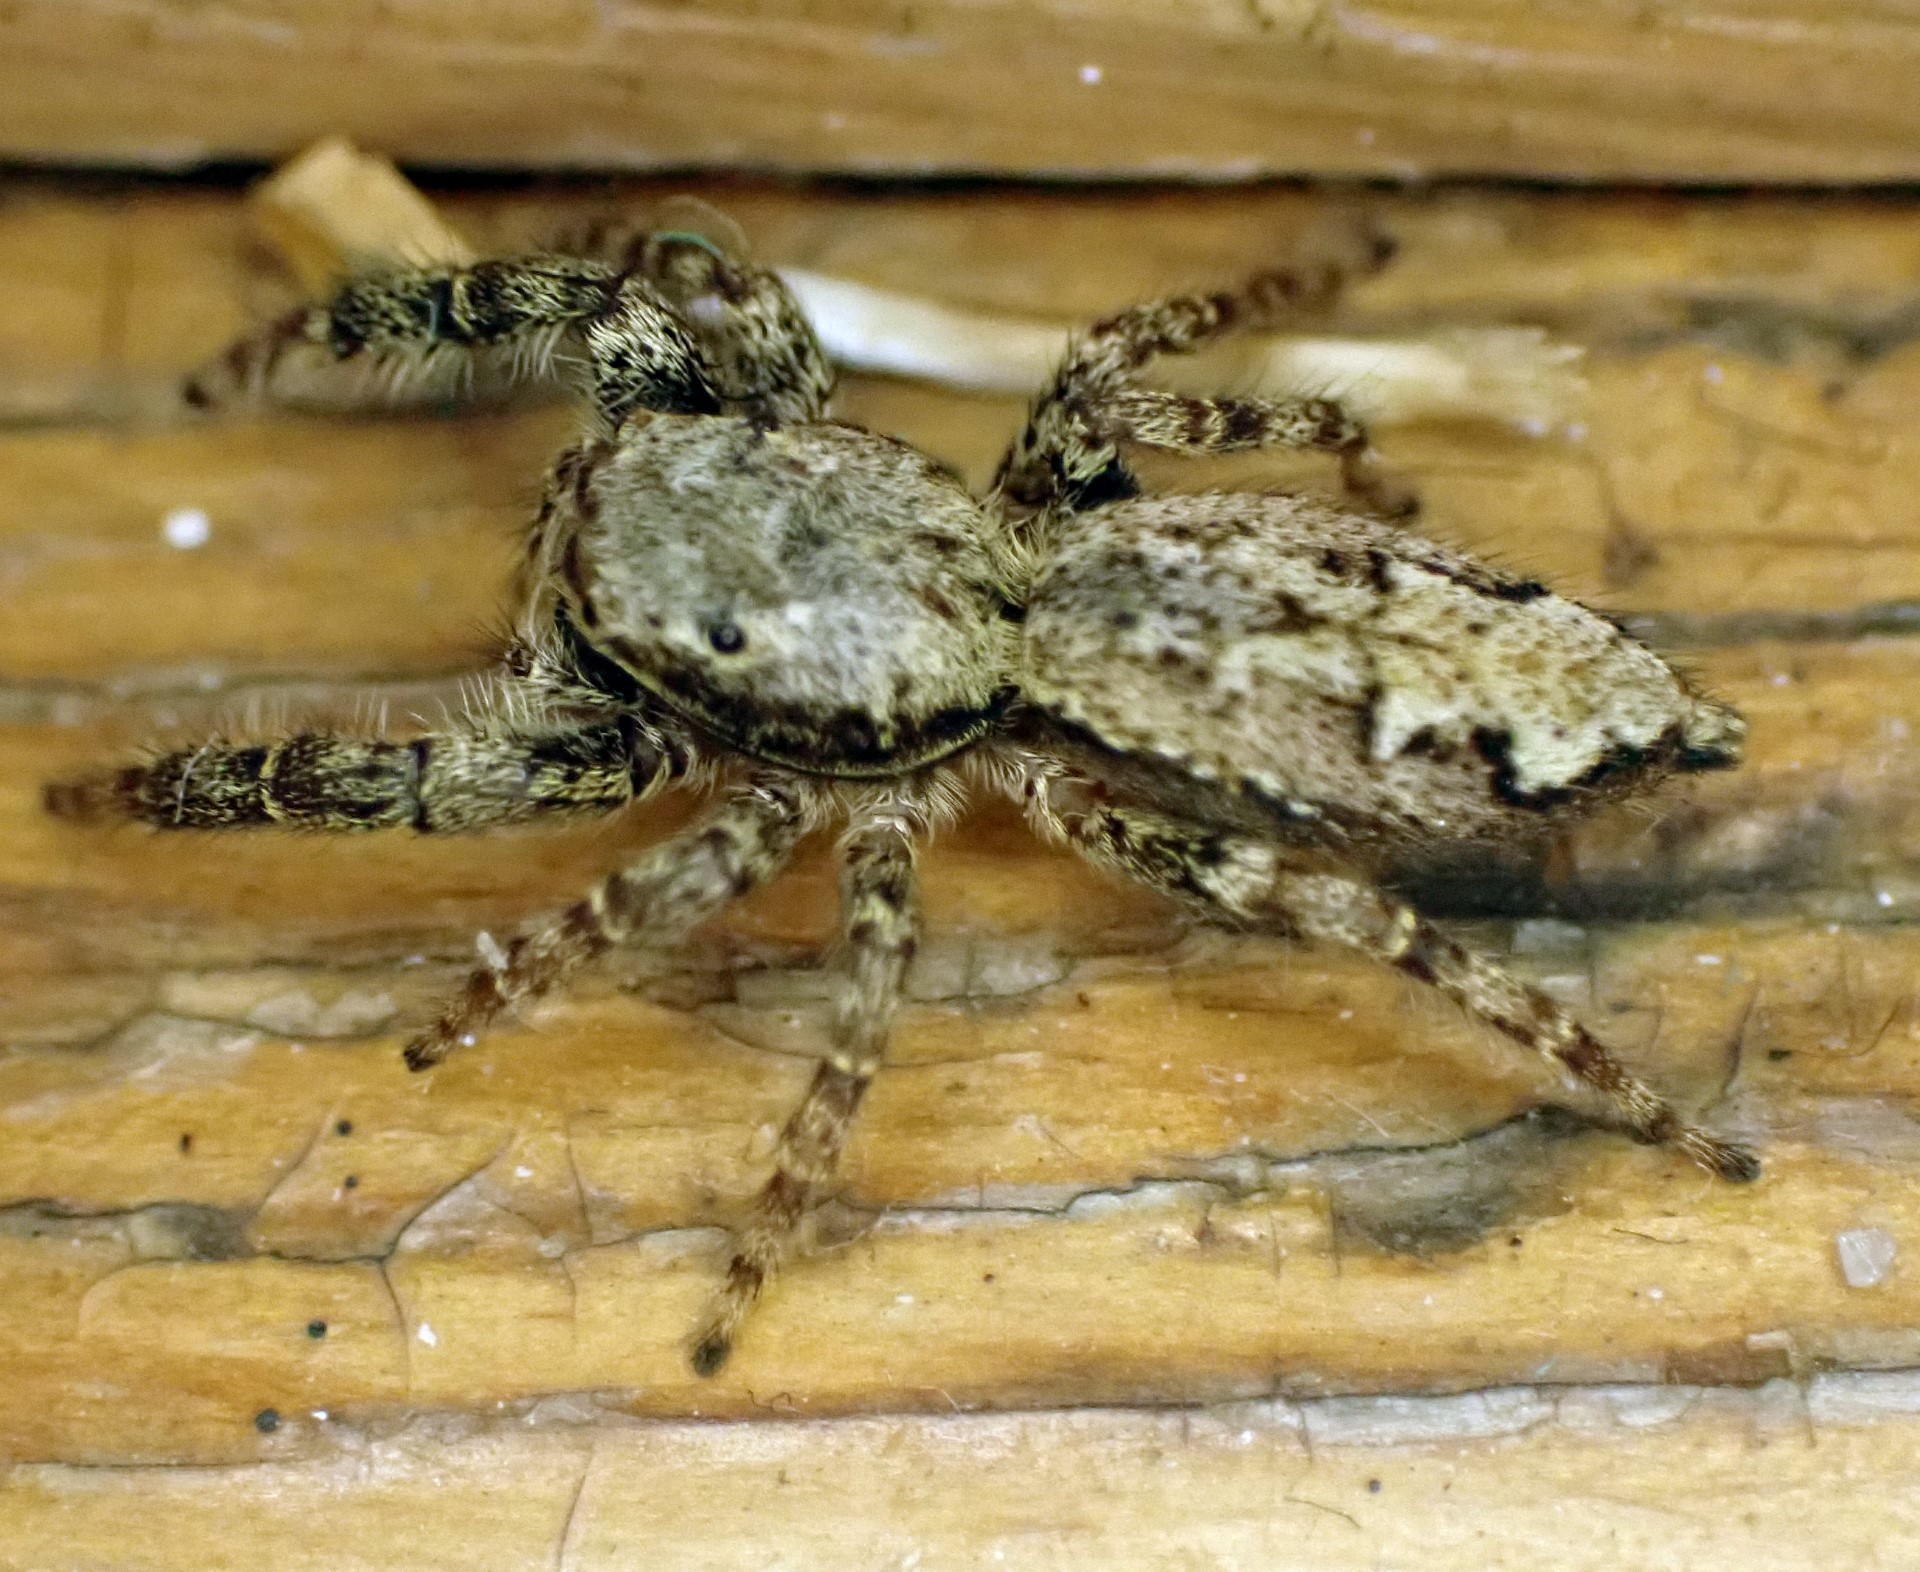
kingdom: Animalia
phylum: Arthropoda
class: Arachnida
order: Araneae
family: Salticidae
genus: Marpissa
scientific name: Marpissa muscosa
